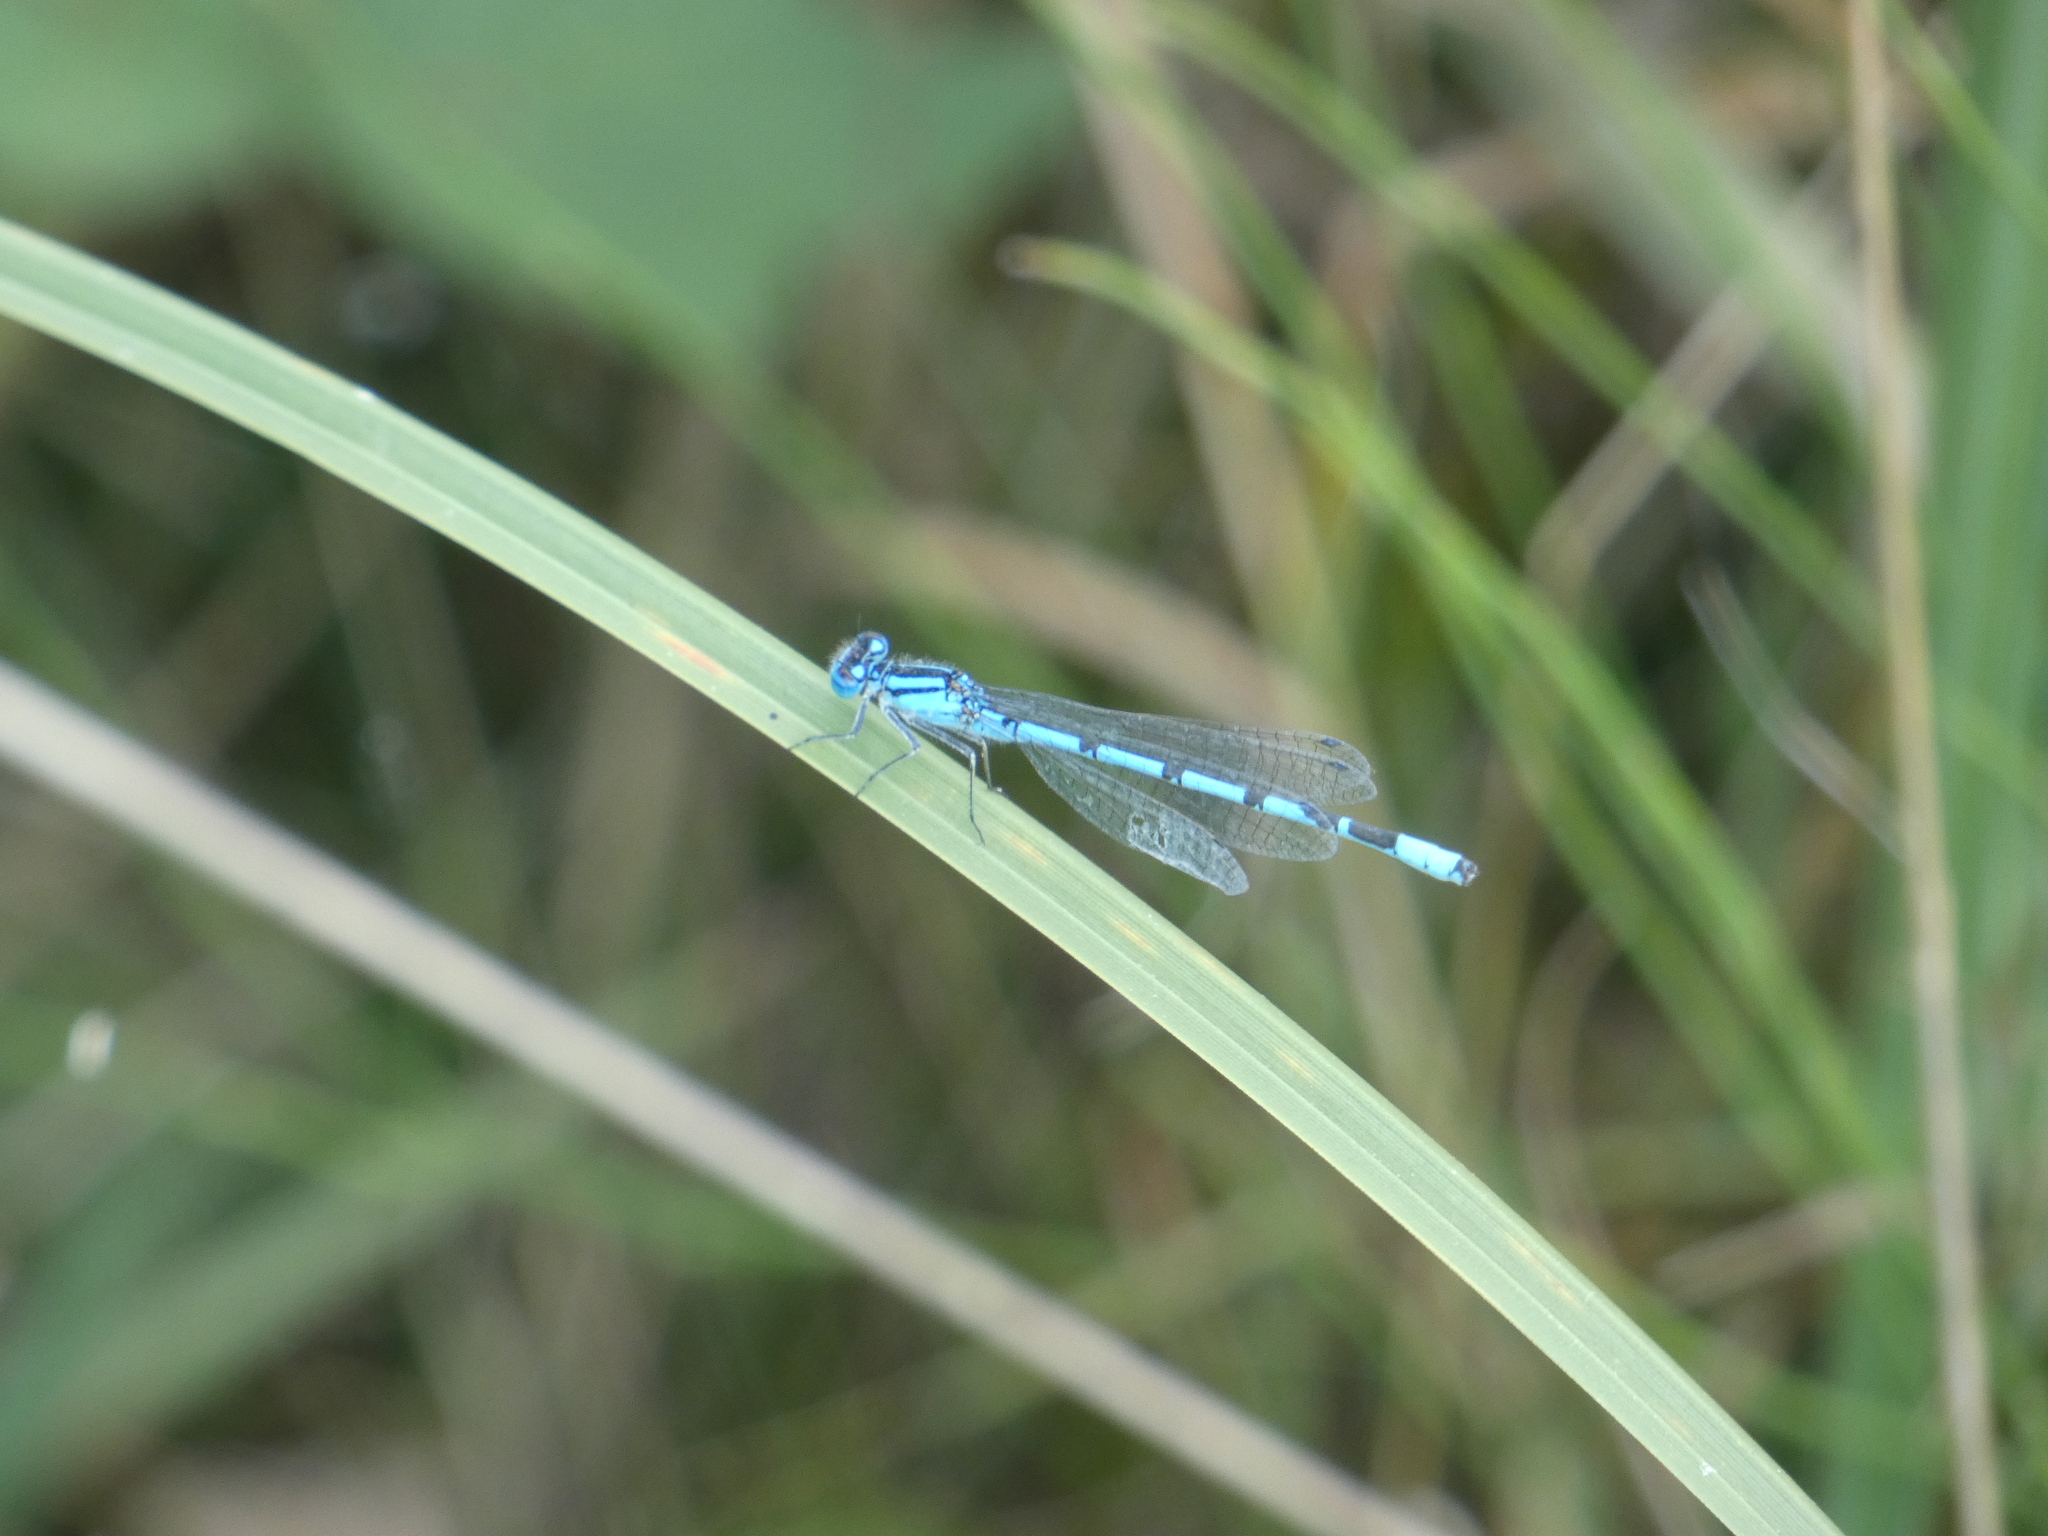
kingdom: Animalia
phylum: Arthropoda
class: Insecta
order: Odonata
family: Coenagrionidae
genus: Enallagma
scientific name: Enallagma cyathigerum
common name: Common blue damselfly
